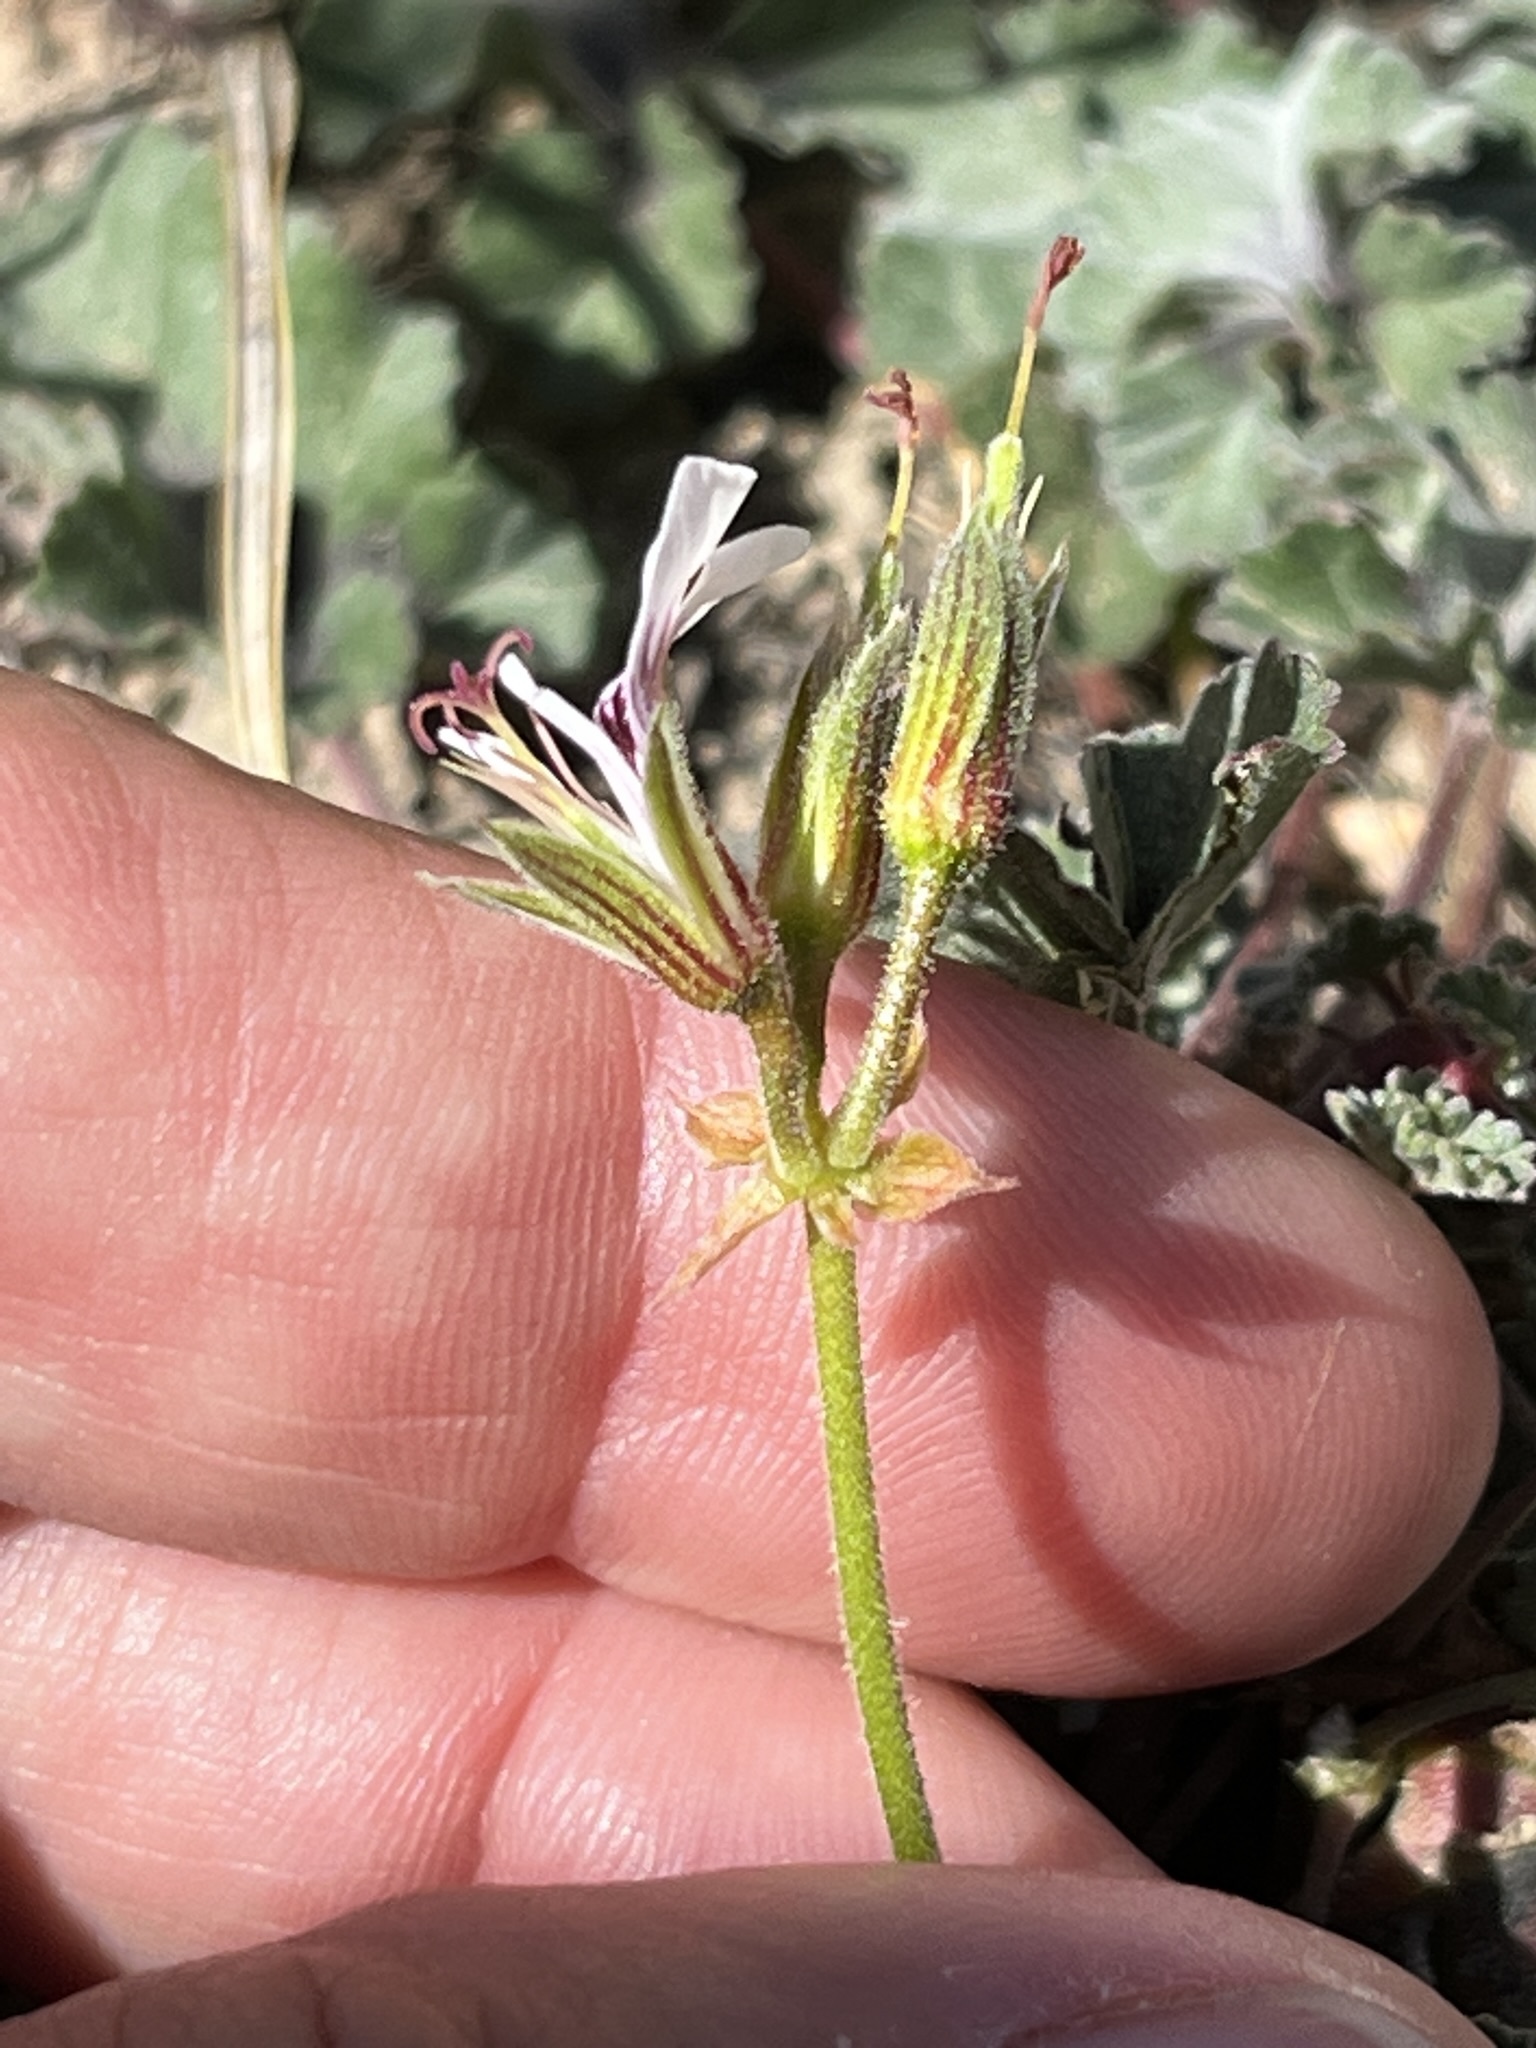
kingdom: Plantae
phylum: Tracheophyta
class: Magnoliopsida
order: Geraniales
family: Geraniaceae
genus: Pelargonium
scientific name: Pelargonium candicans
